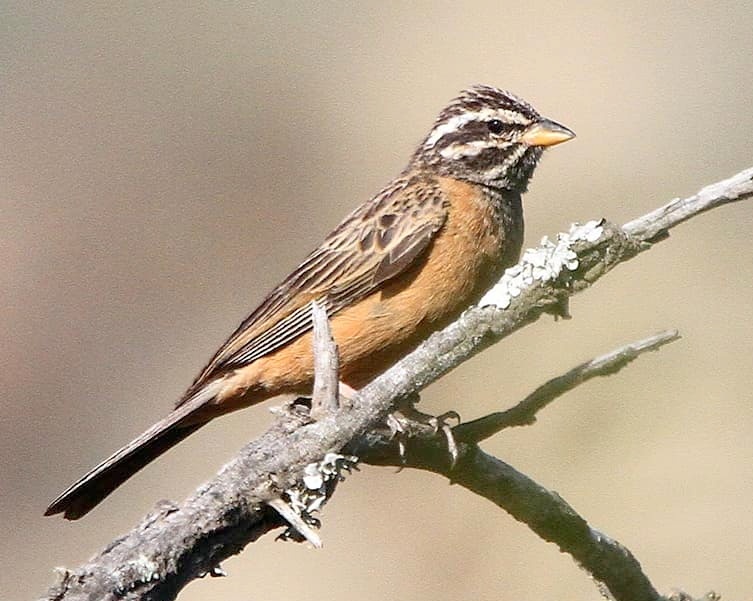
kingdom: Animalia
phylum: Chordata
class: Aves
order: Passeriformes
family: Emberizidae
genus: Emberiza
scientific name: Emberiza tahapisi
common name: Cinnamon-breasted bunting
